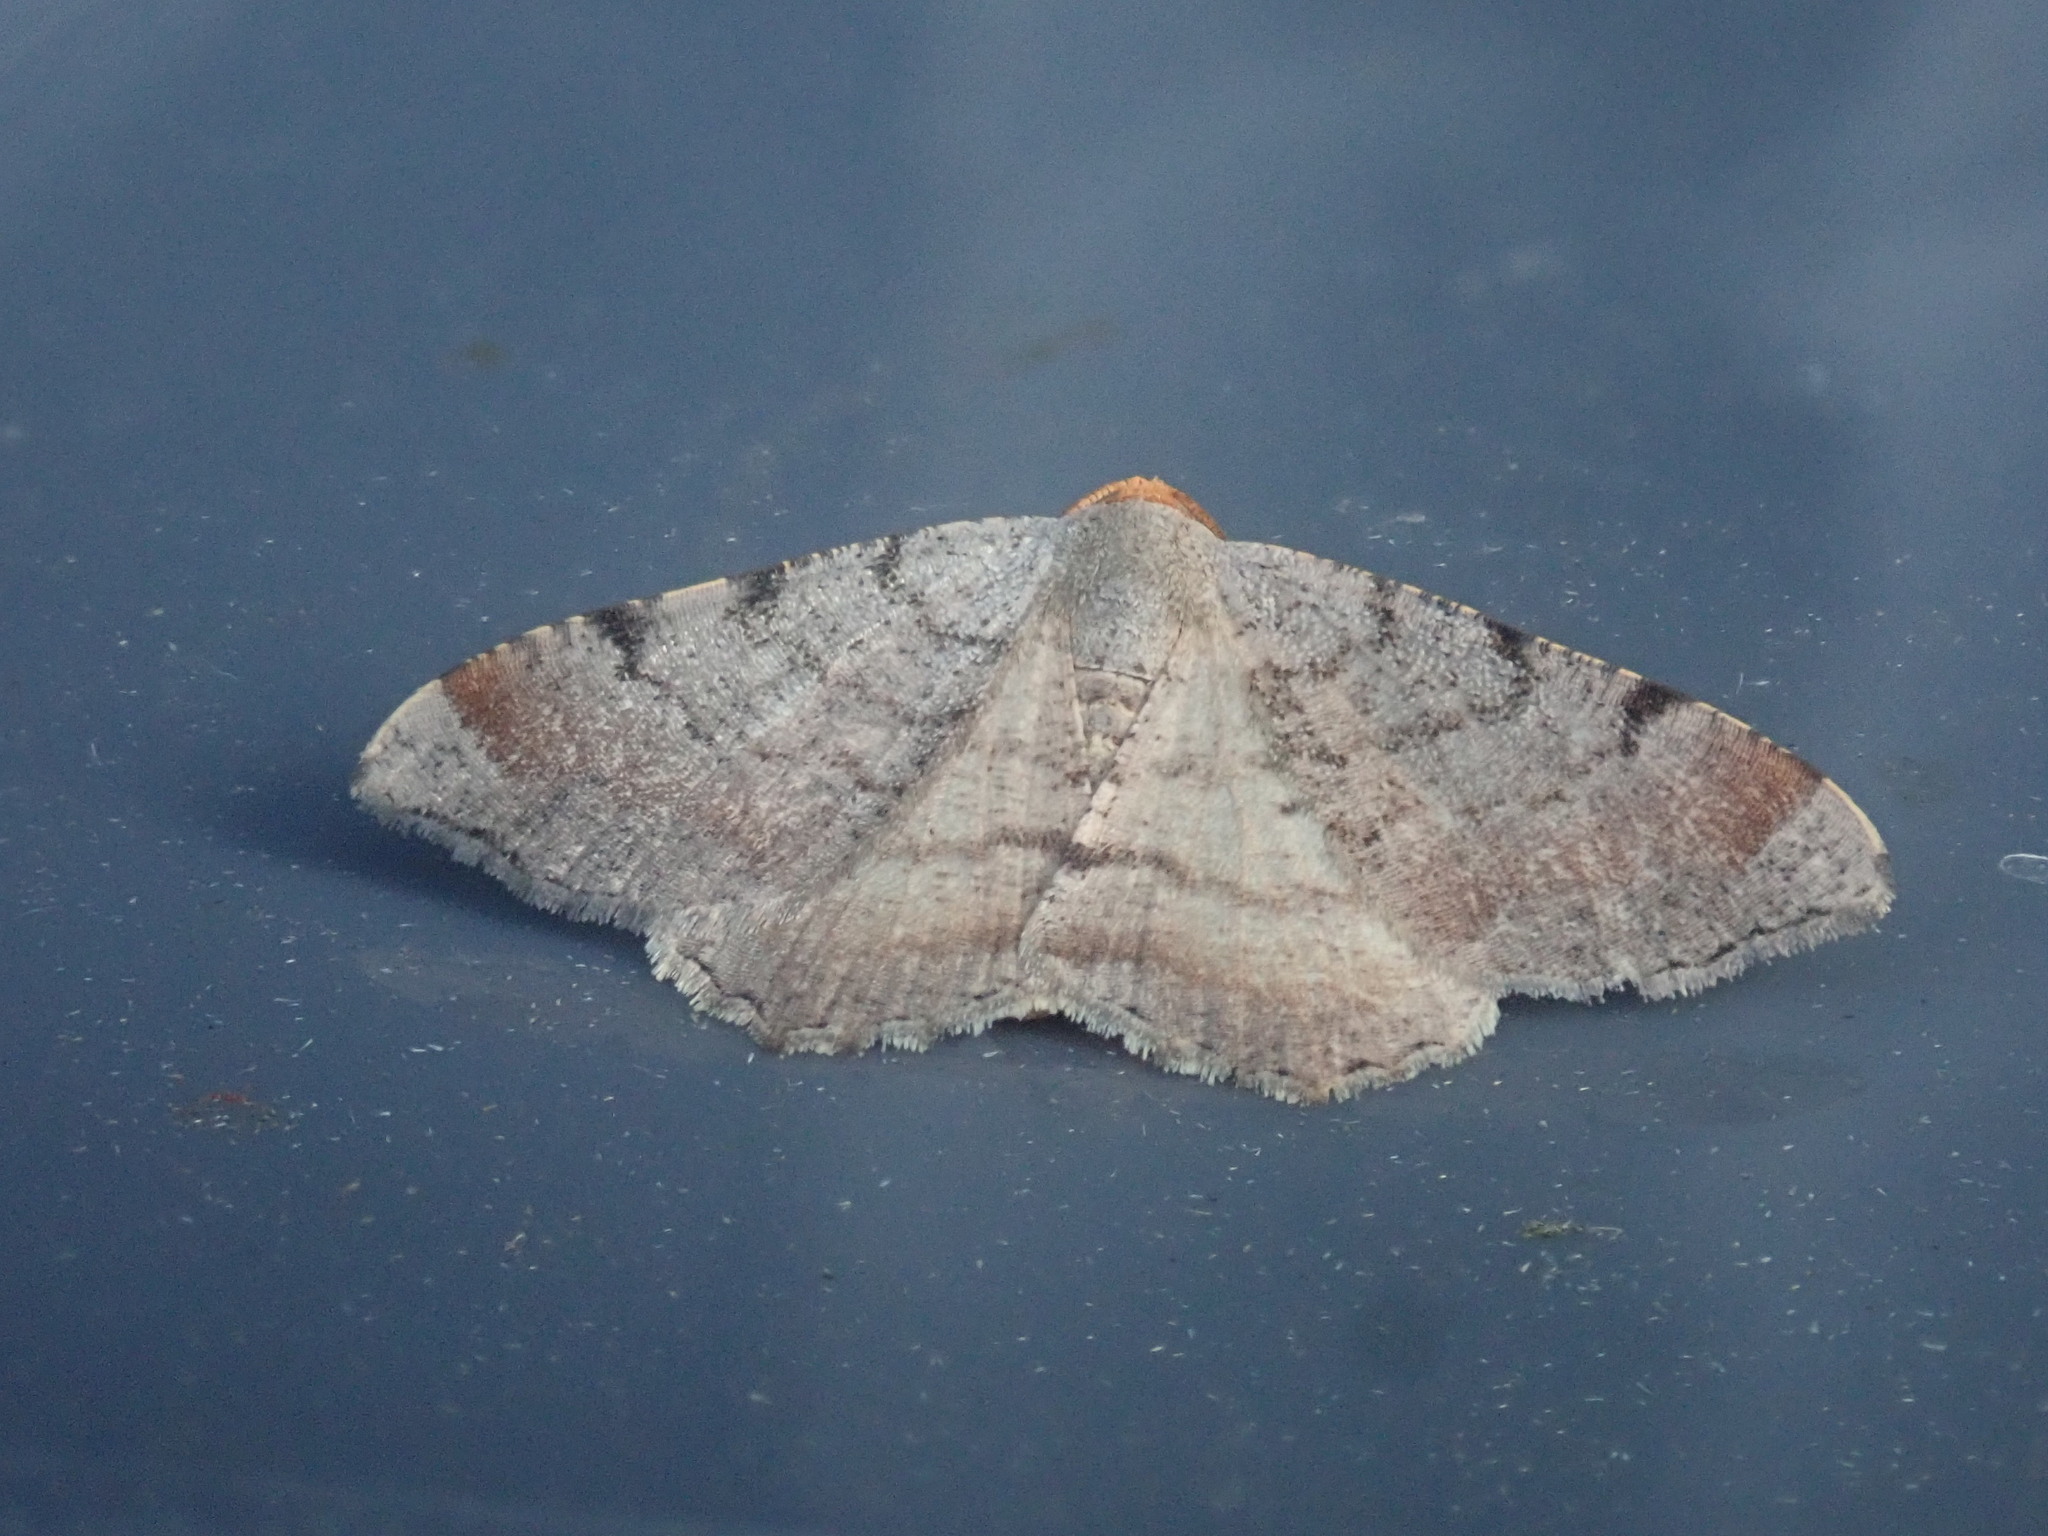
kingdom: Animalia
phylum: Arthropoda
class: Insecta
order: Lepidoptera
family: Geometridae
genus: Macaria
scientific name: Macaria minorata
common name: Minor angle moth
